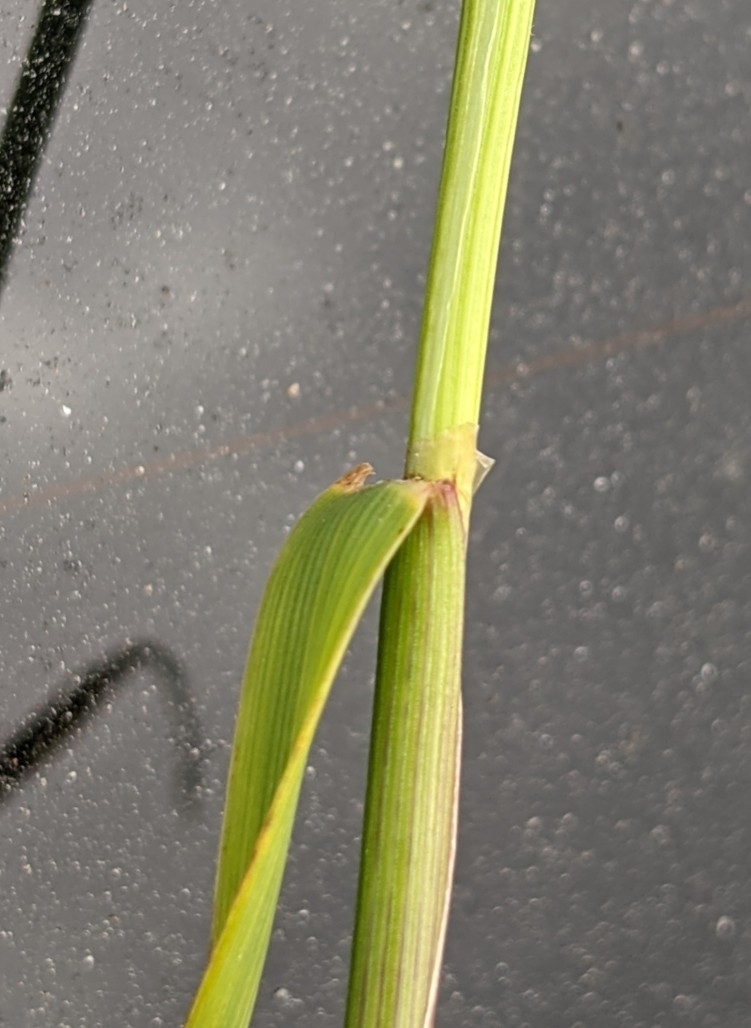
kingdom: Plantae
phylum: Tracheophyta
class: Liliopsida
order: Poales
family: Poaceae
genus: Cynosurus
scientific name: Cynosurus cristatus
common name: Crested dog's-tail
